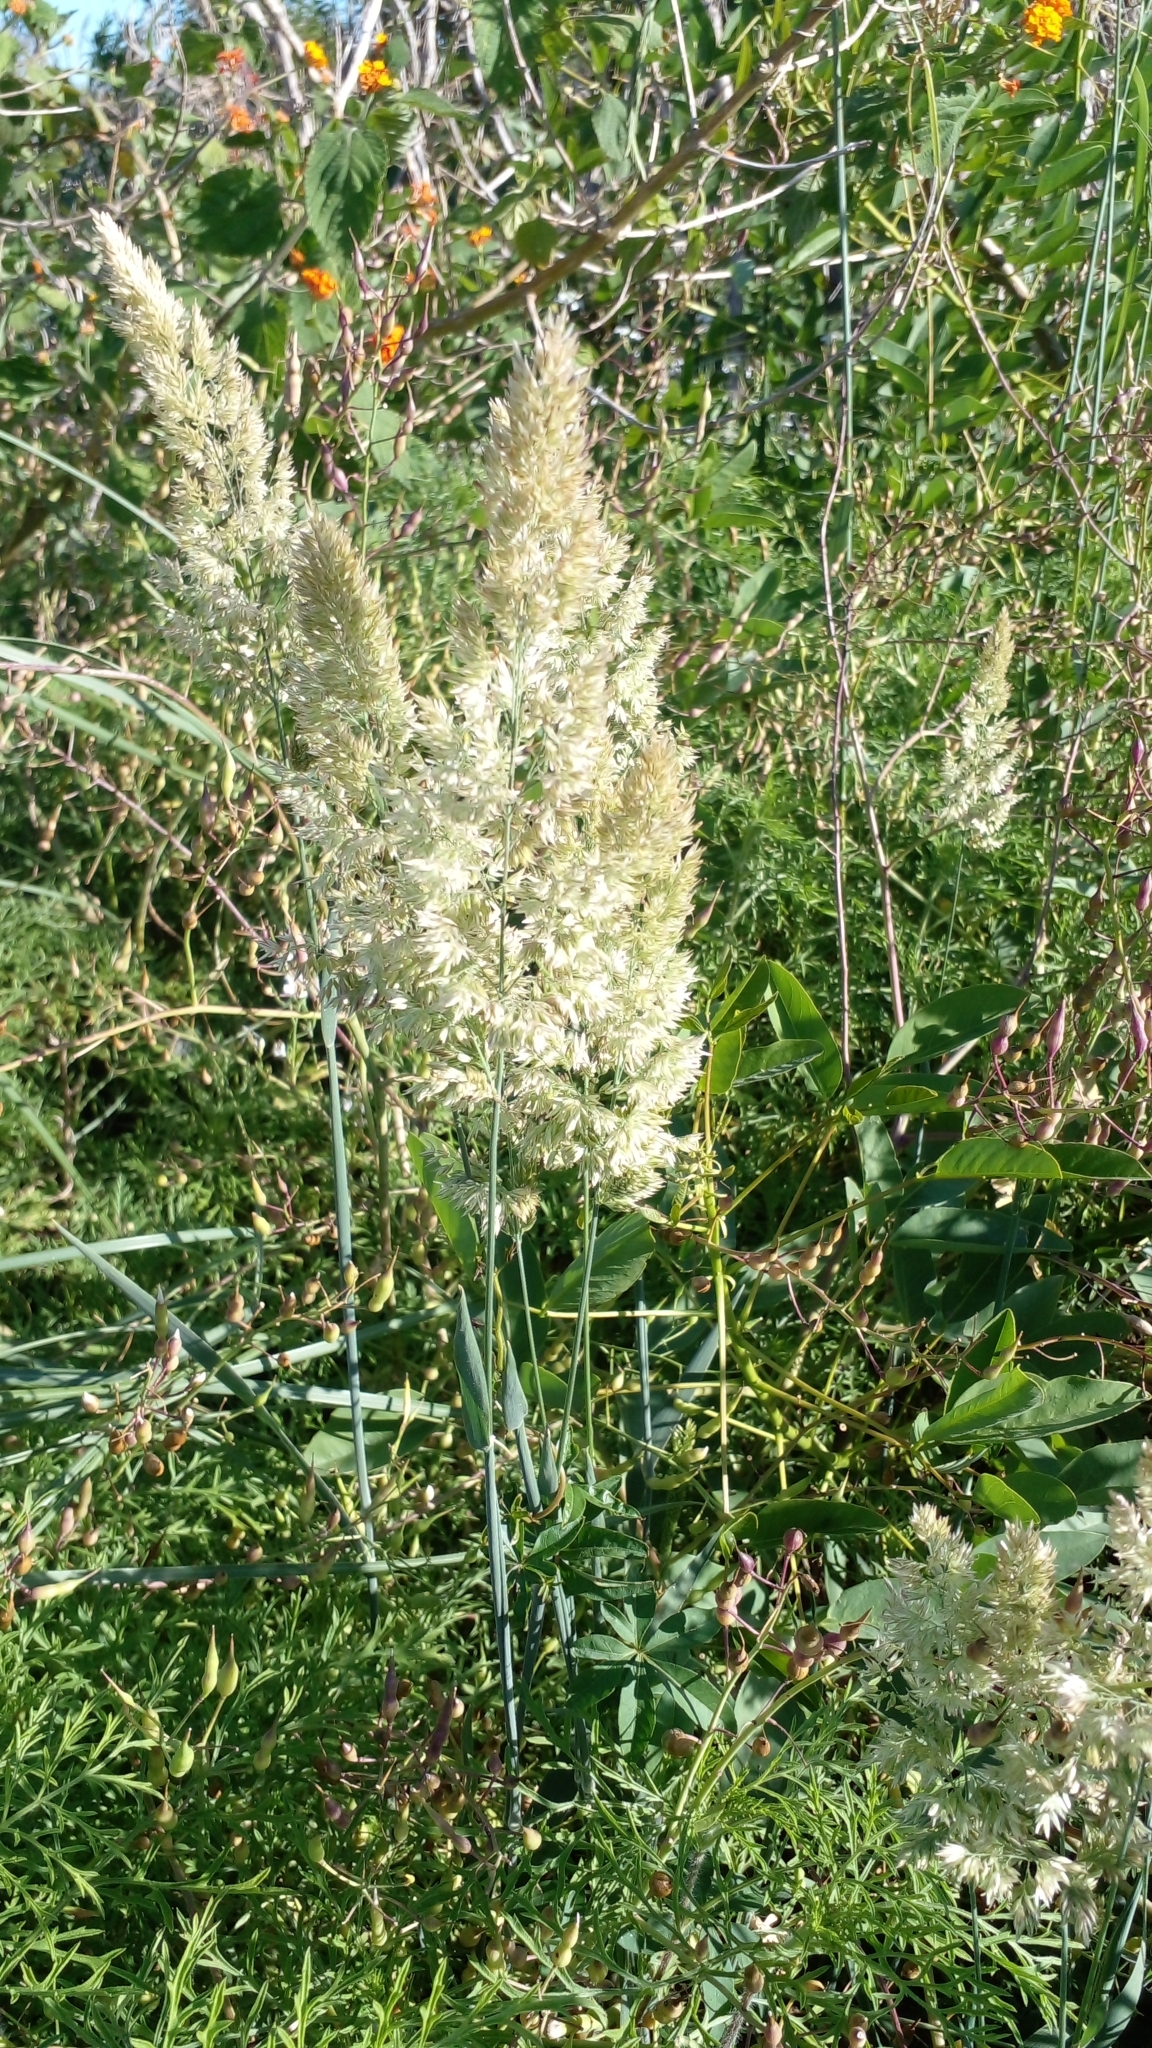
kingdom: Plantae
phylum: Tracheophyta
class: Liliopsida
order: Poales
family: Poaceae
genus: Holcus
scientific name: Holcus lanatus
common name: Yorkshire-fog
